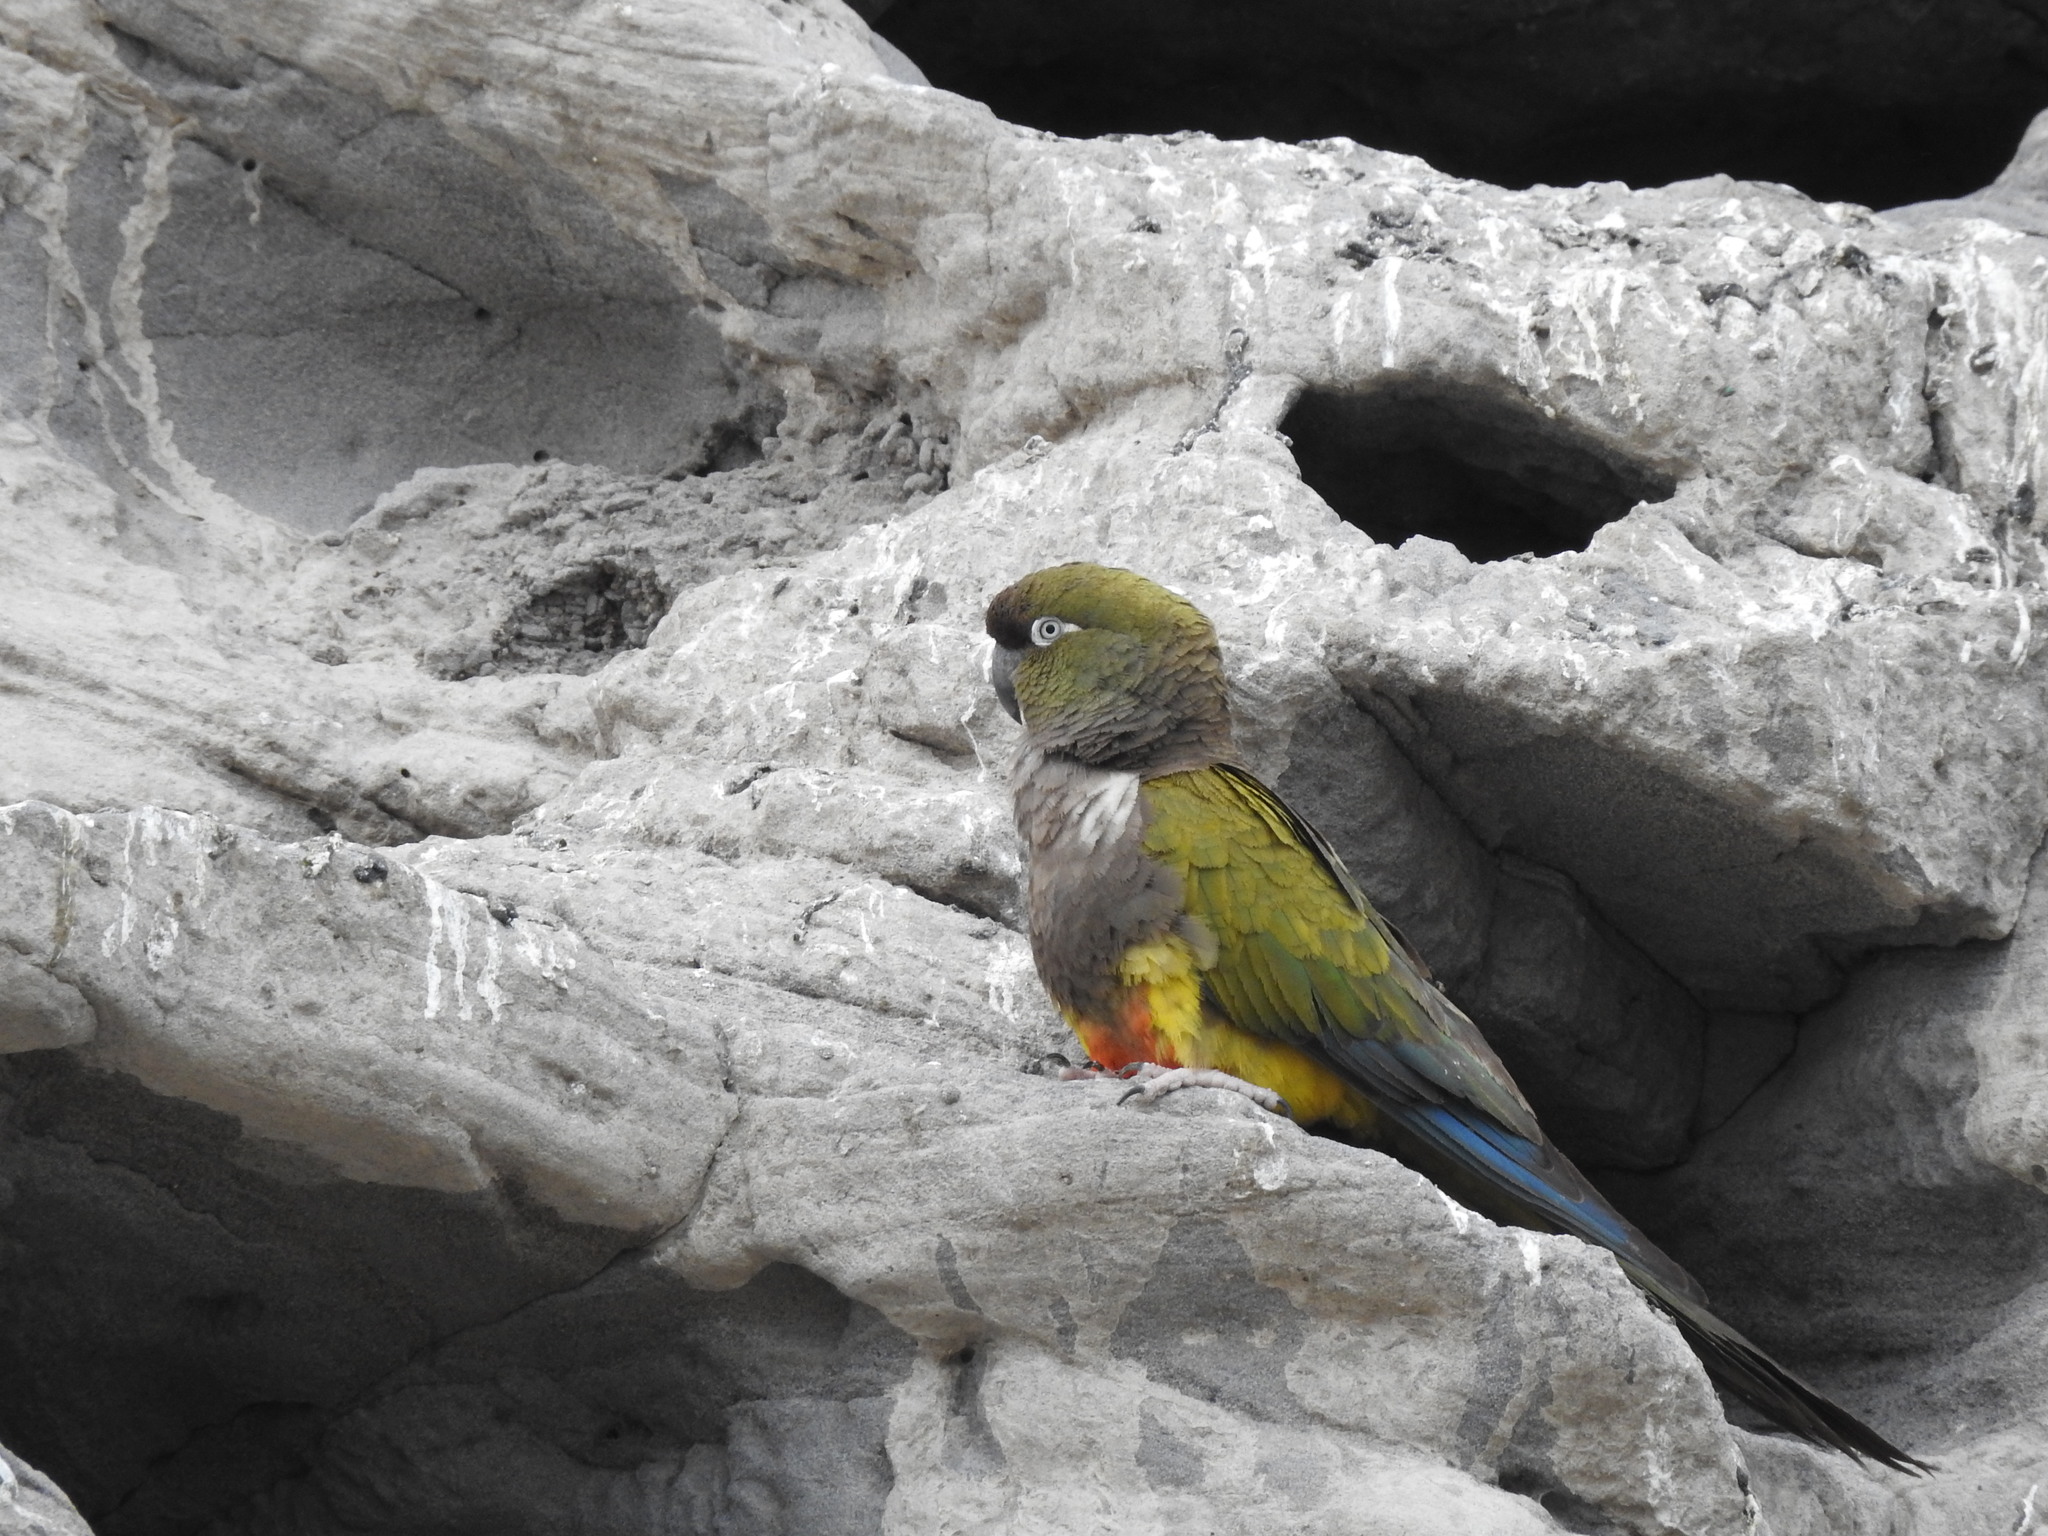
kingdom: Animalia
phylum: Chordata
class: Aves
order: Psittaciformes
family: Psittacidae
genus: Cyanoliseus
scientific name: Cyanoliseus patagonus
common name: Burrowing parrot
